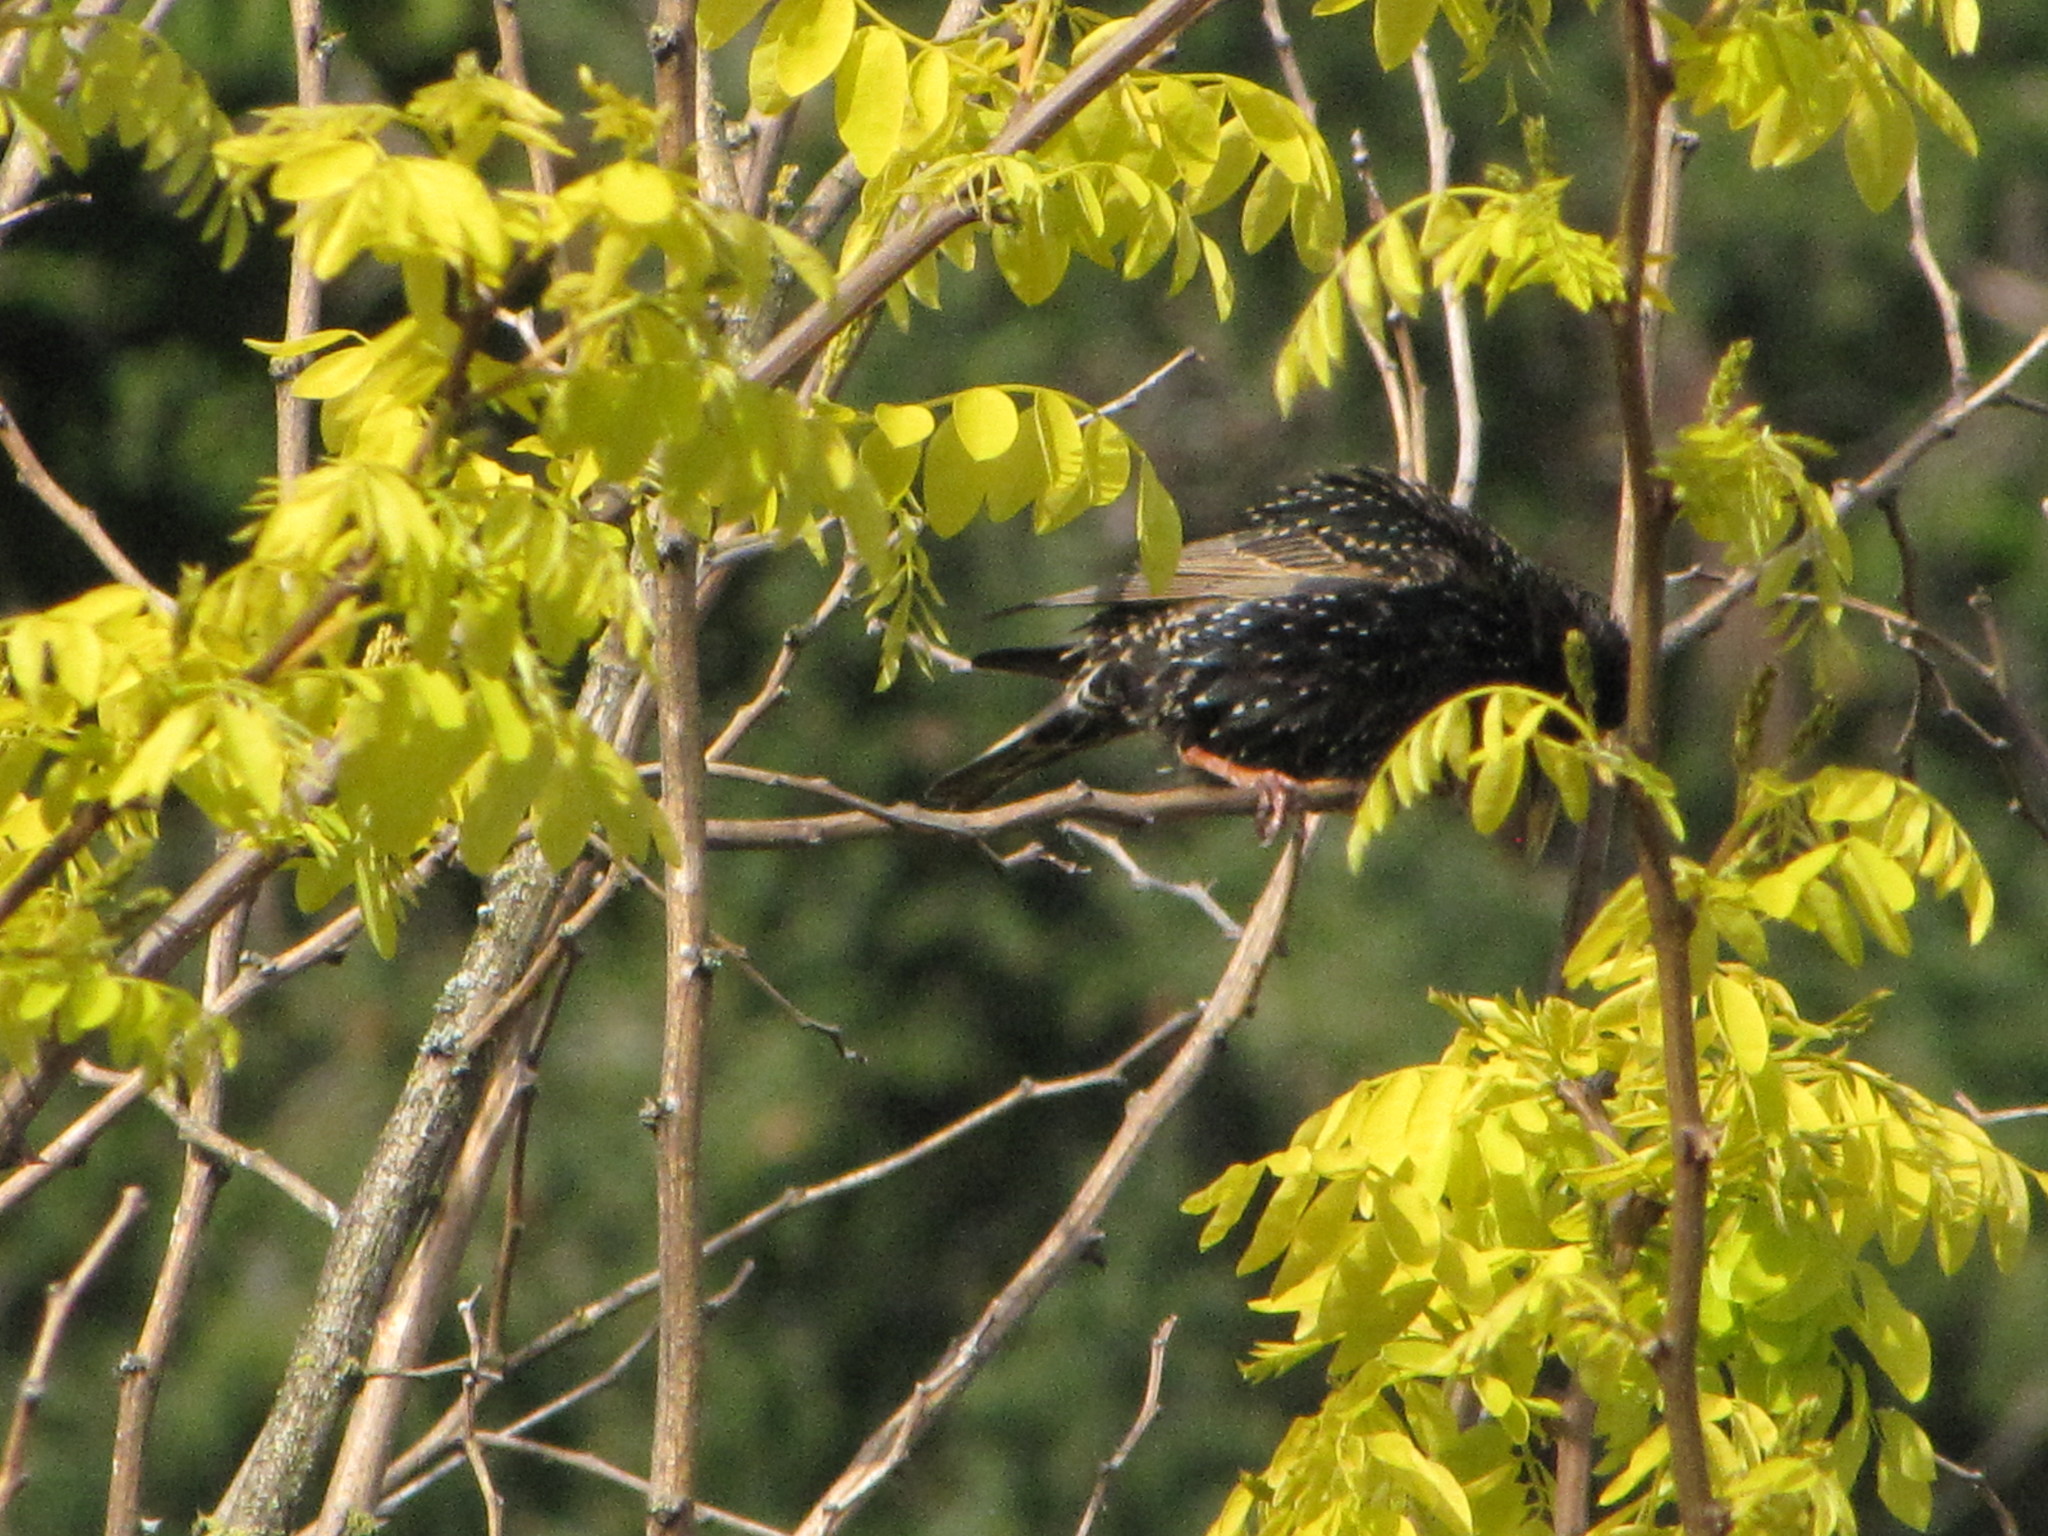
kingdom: Animalia
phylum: Chordata
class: Aves
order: Passeriformes
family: Sturnidae
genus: Sturnus
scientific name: Sturnus vulgaris
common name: Common starling
